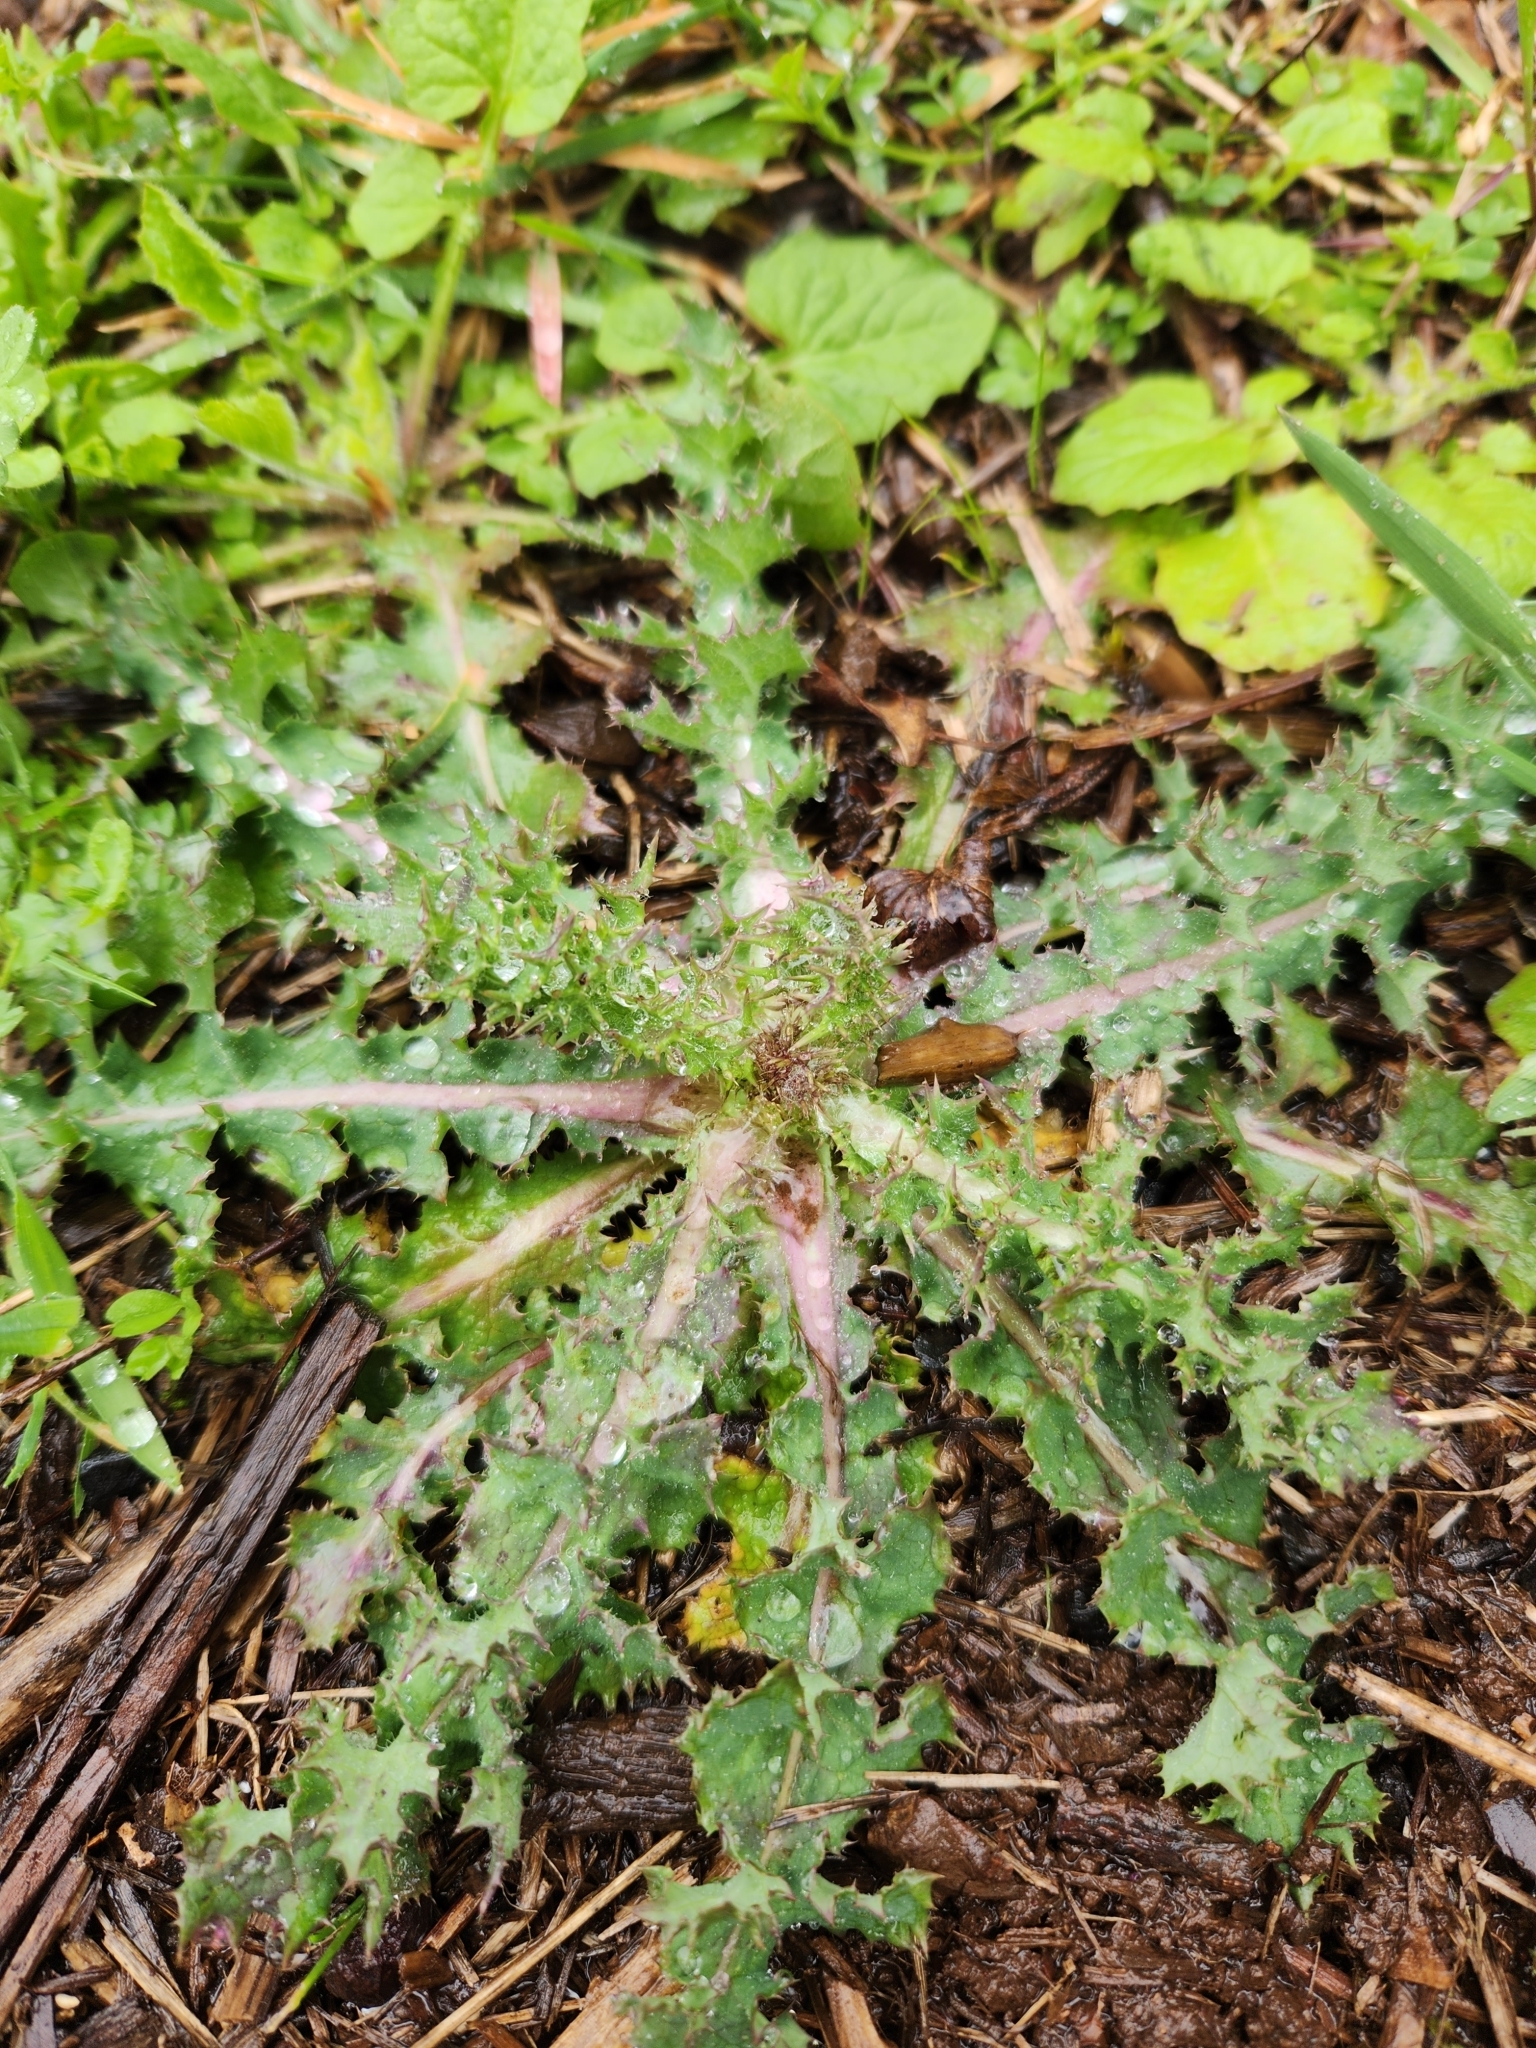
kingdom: Plantae
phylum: Tracheophyta
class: Magnoliopsida
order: Asterales
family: Asteraceae
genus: Sonchus
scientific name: Sonchus asper
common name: Prickly sow-thistle
